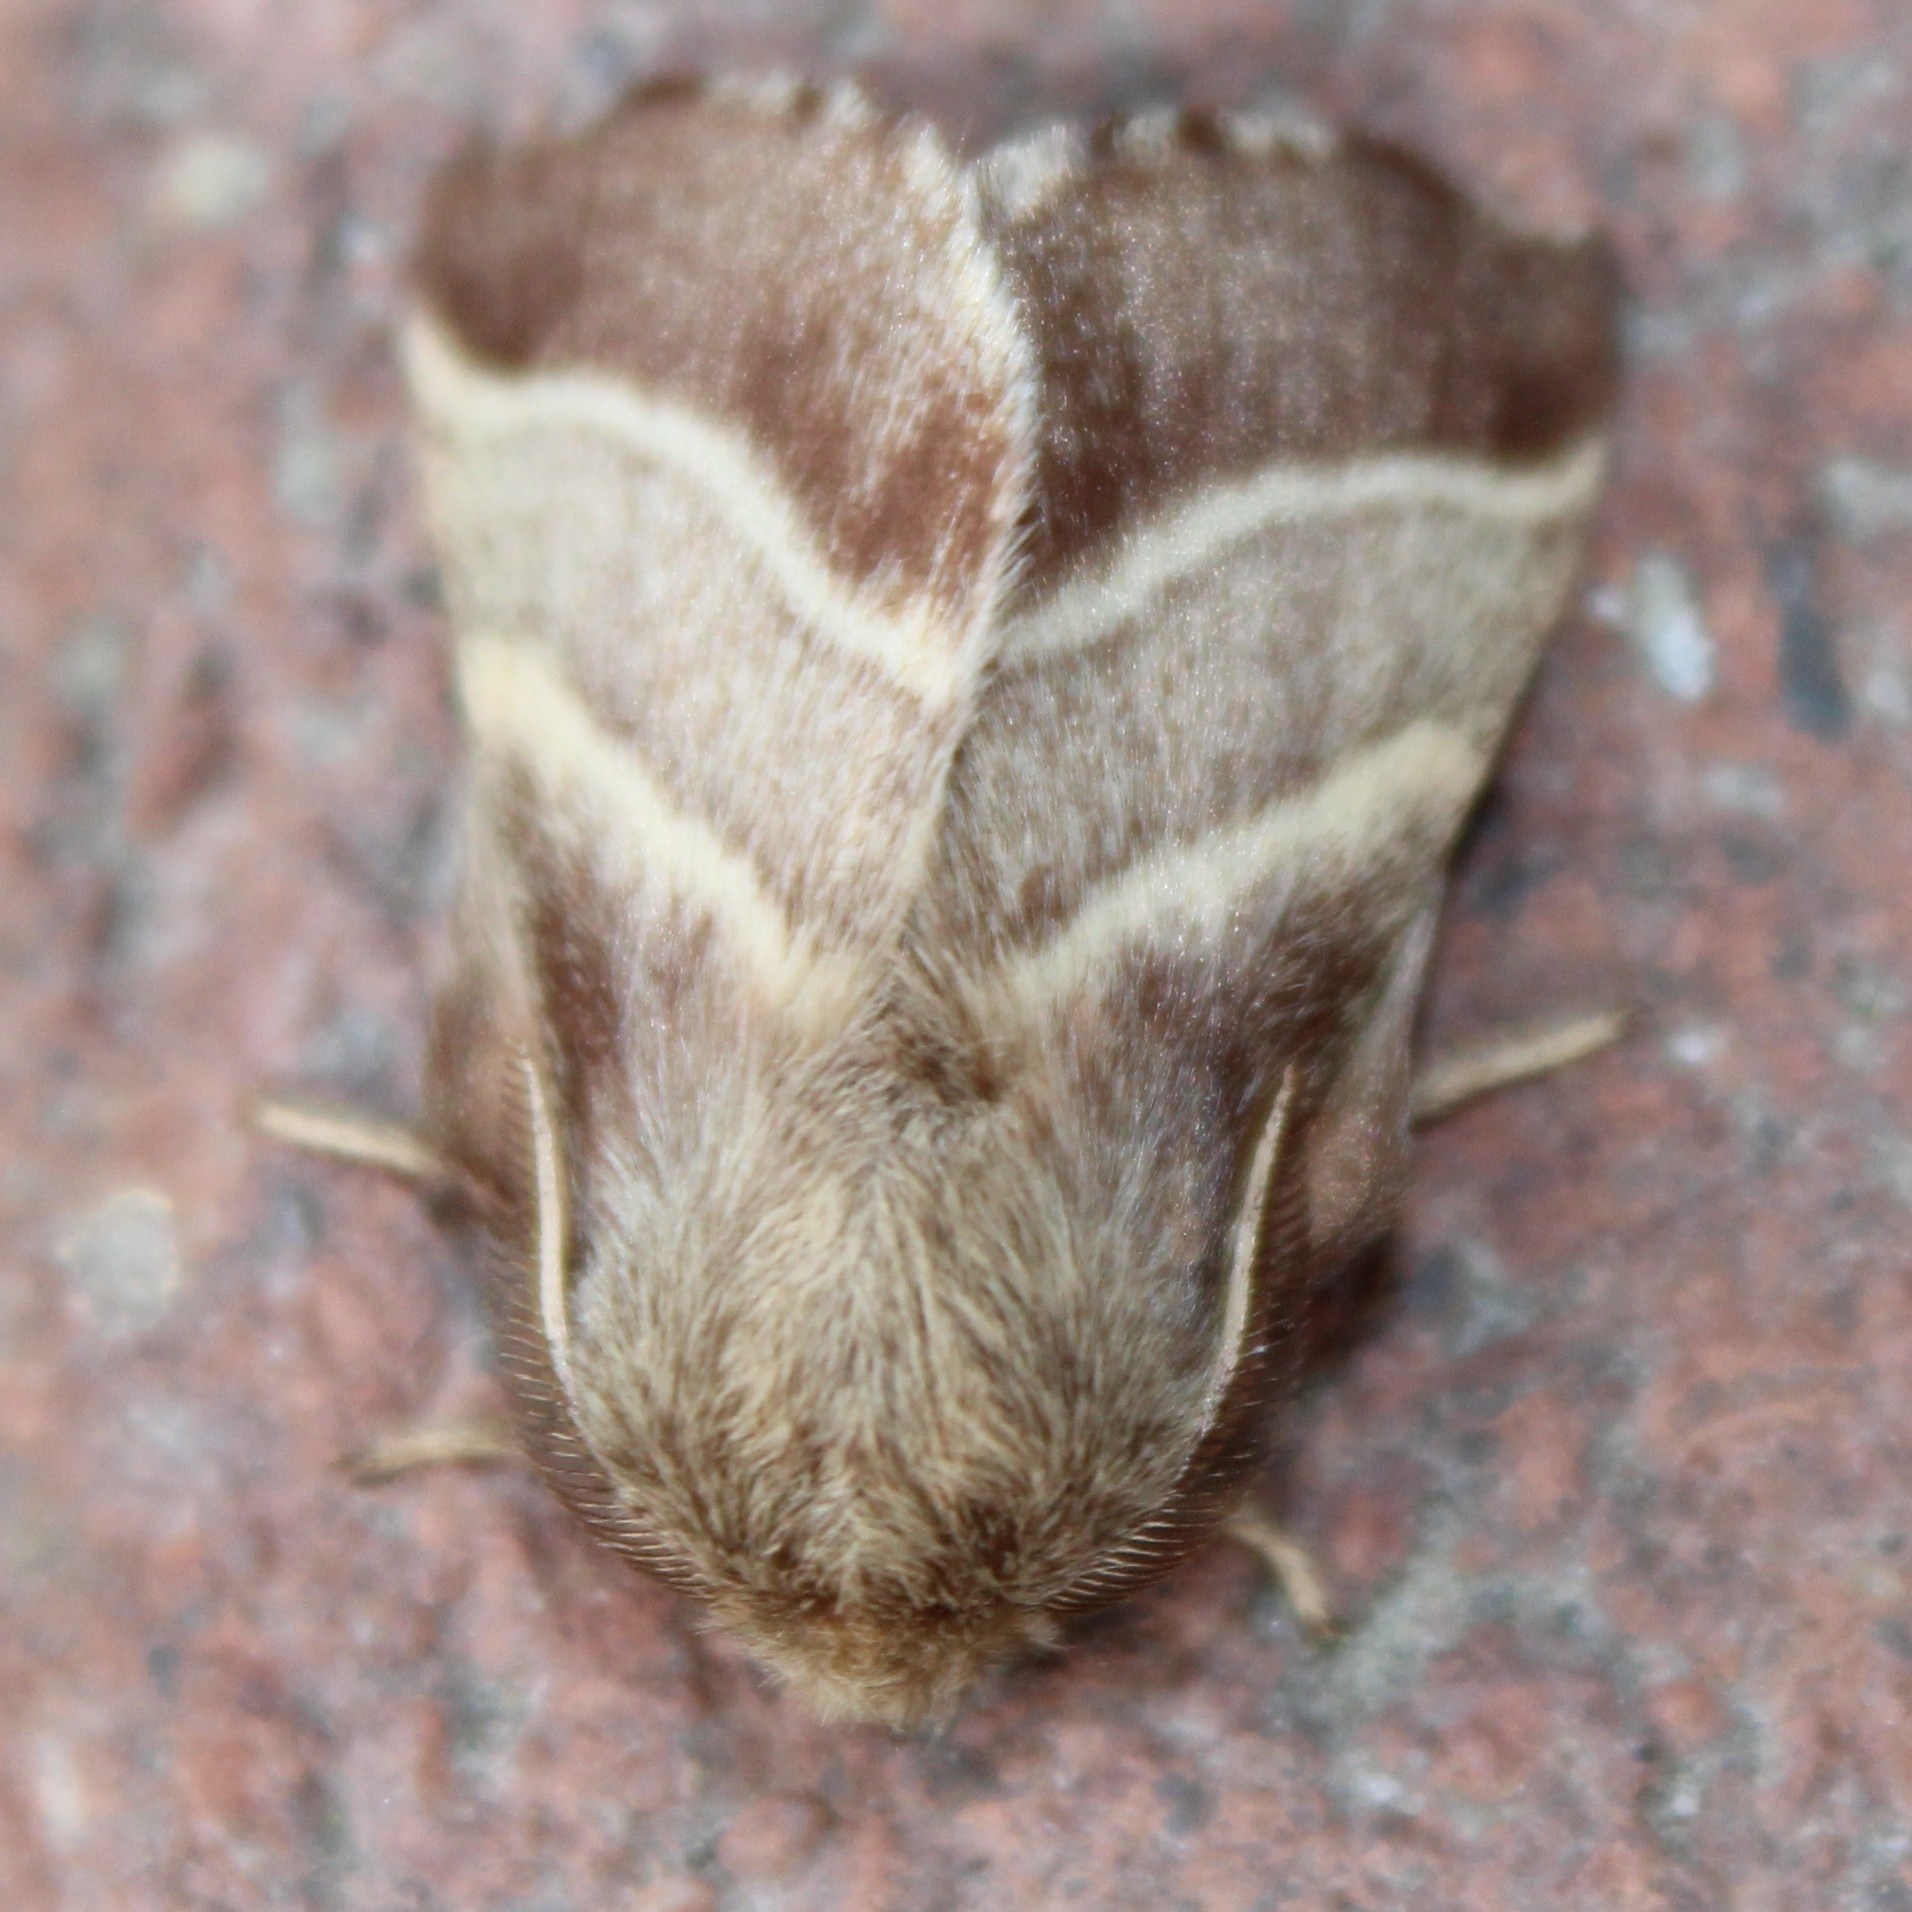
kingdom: Animalia
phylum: Arthropoda
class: Insecta
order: Lepidoptera
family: Lasiocampidae
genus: Malacosoma
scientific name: Malacosoma americana
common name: Eastern tent caterpillar moth
